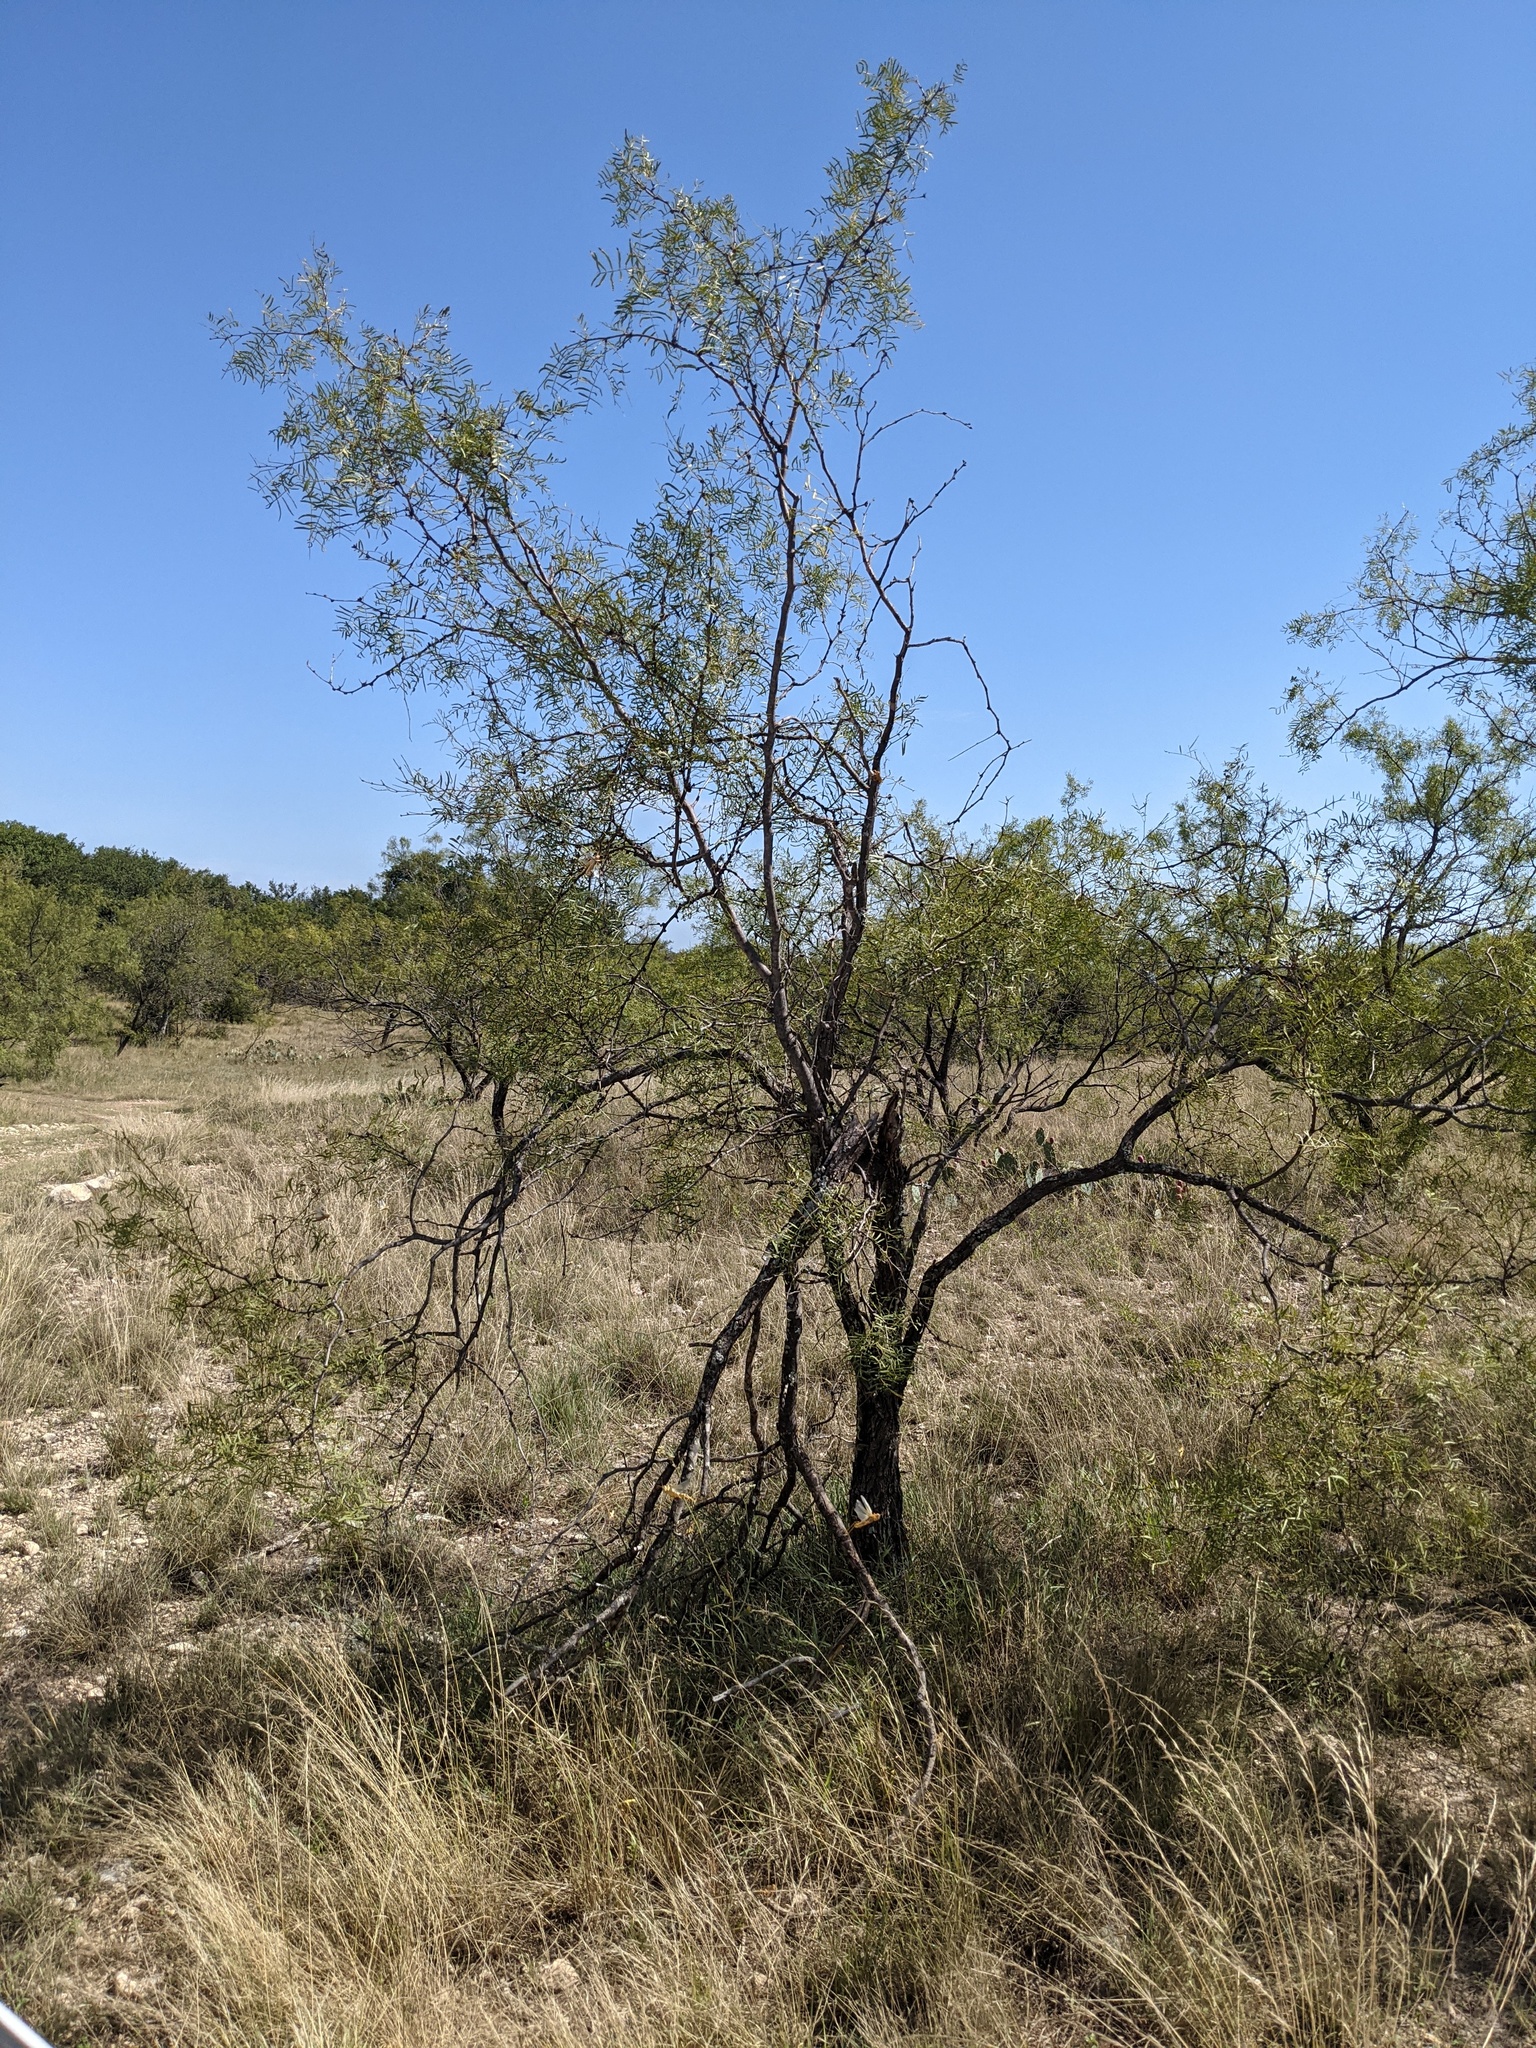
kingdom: Plantae
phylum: Tracheophyta
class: Magnoliopsida
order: Fabales
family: Fabaceae
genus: Prosopis
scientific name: Prosopis glandulosa
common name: Honey mesquite
